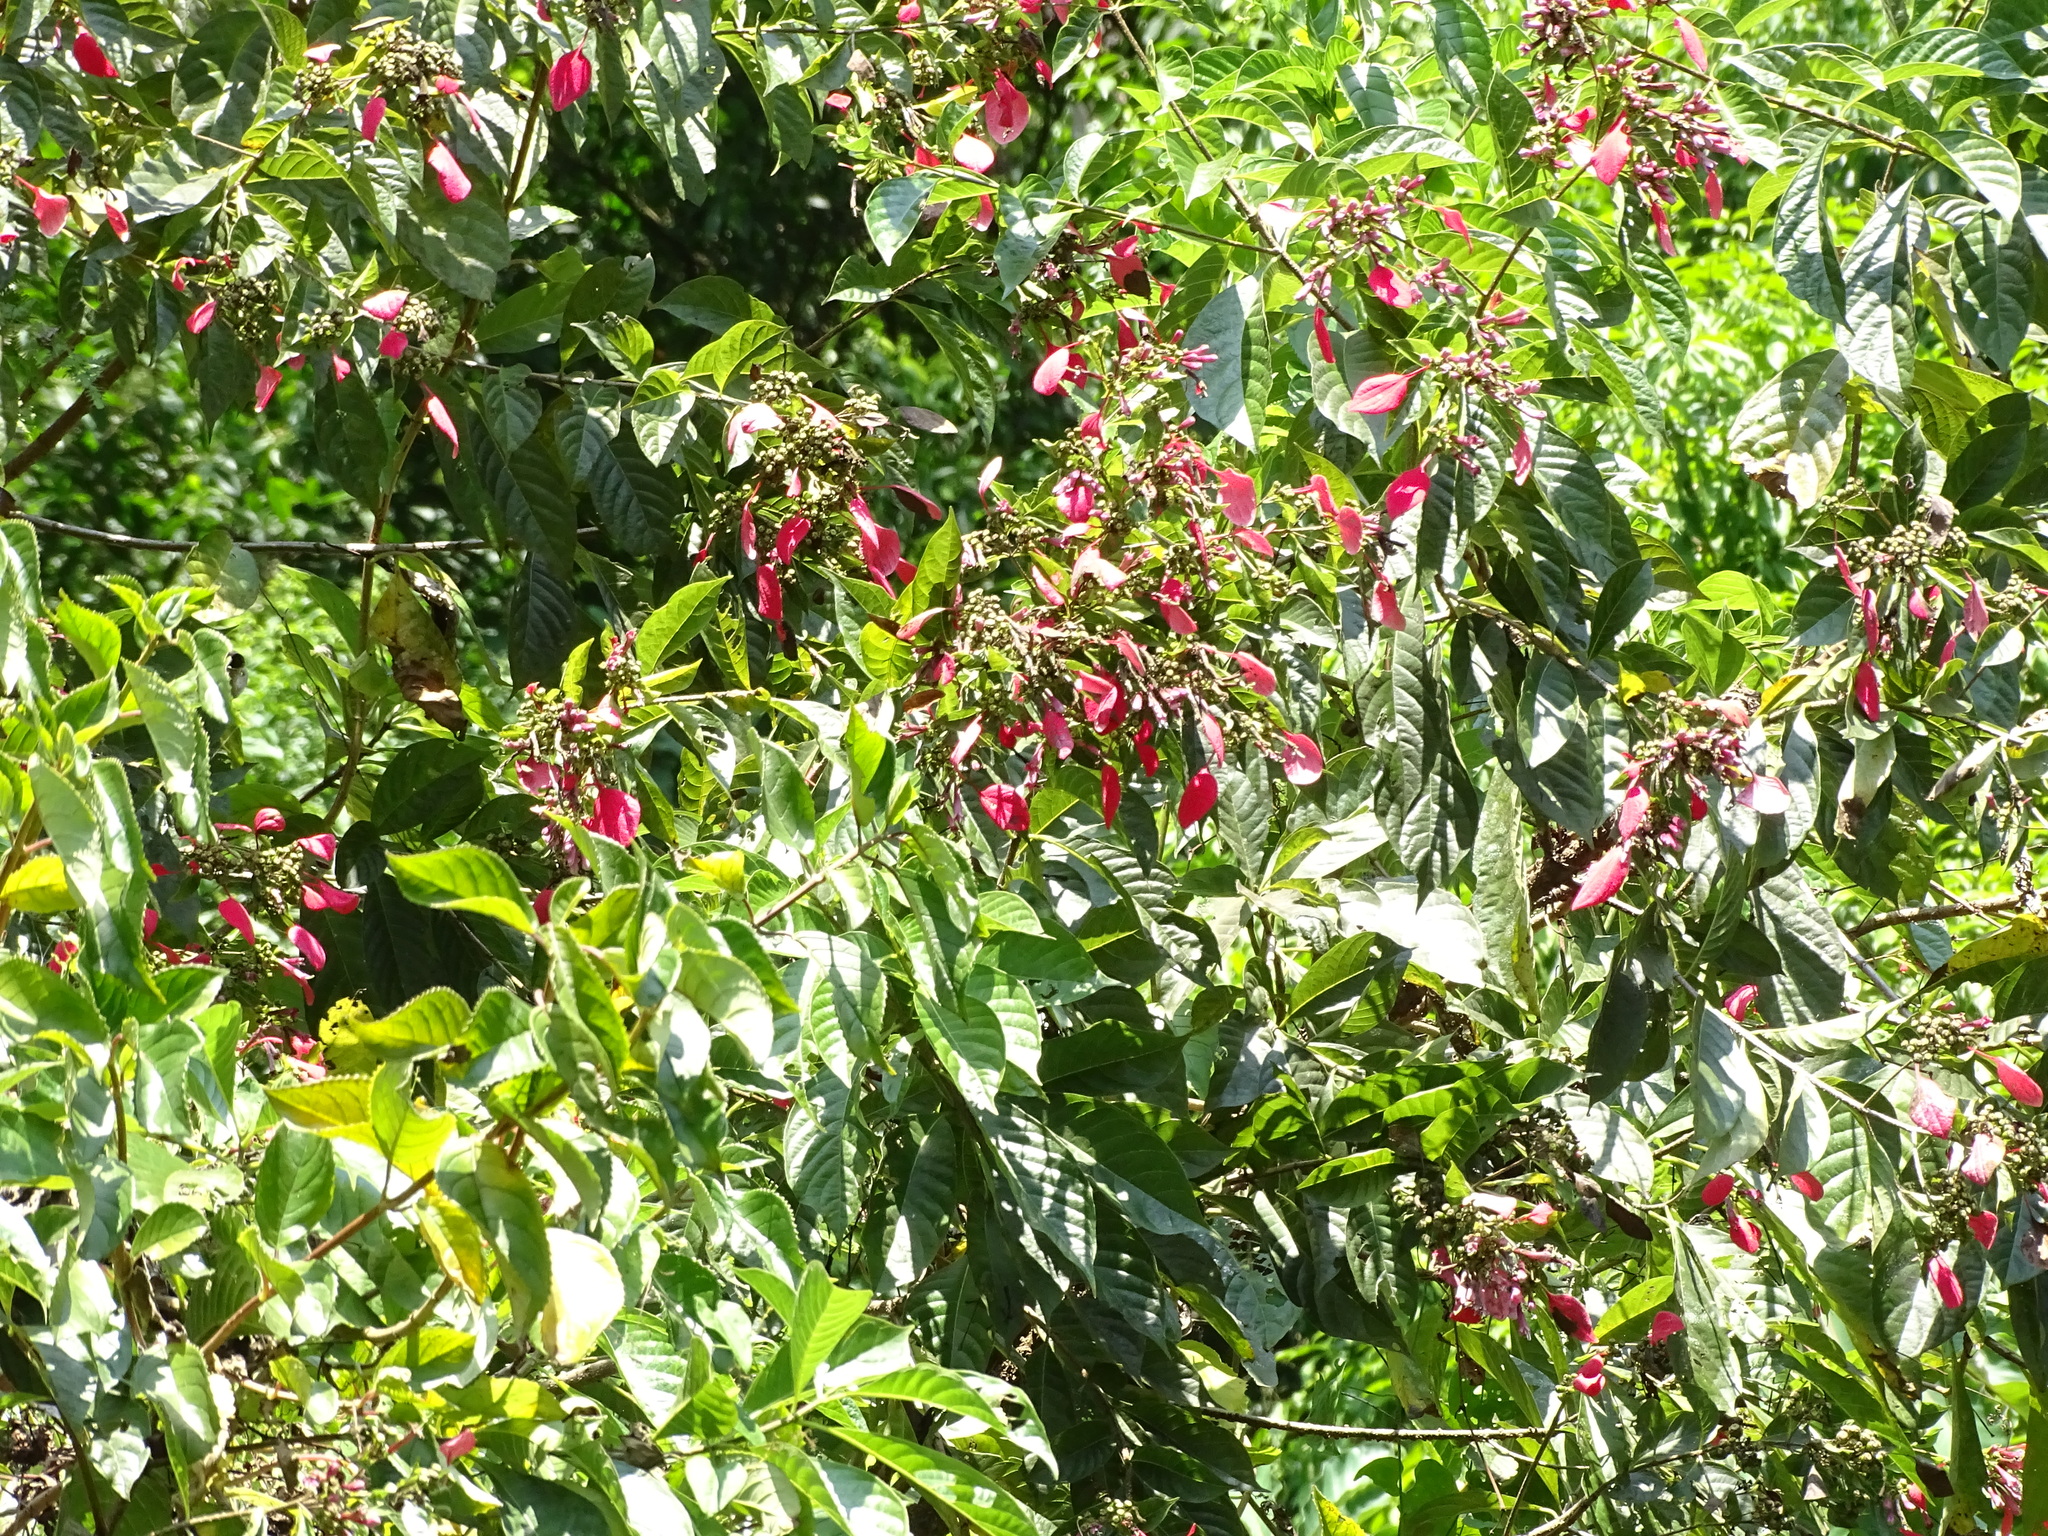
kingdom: Plantae
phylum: Tracheophyta
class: Magnoliopsida
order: Gentianales
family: Rubiaceae
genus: Pogonopus
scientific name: Pogonopus exsertus
